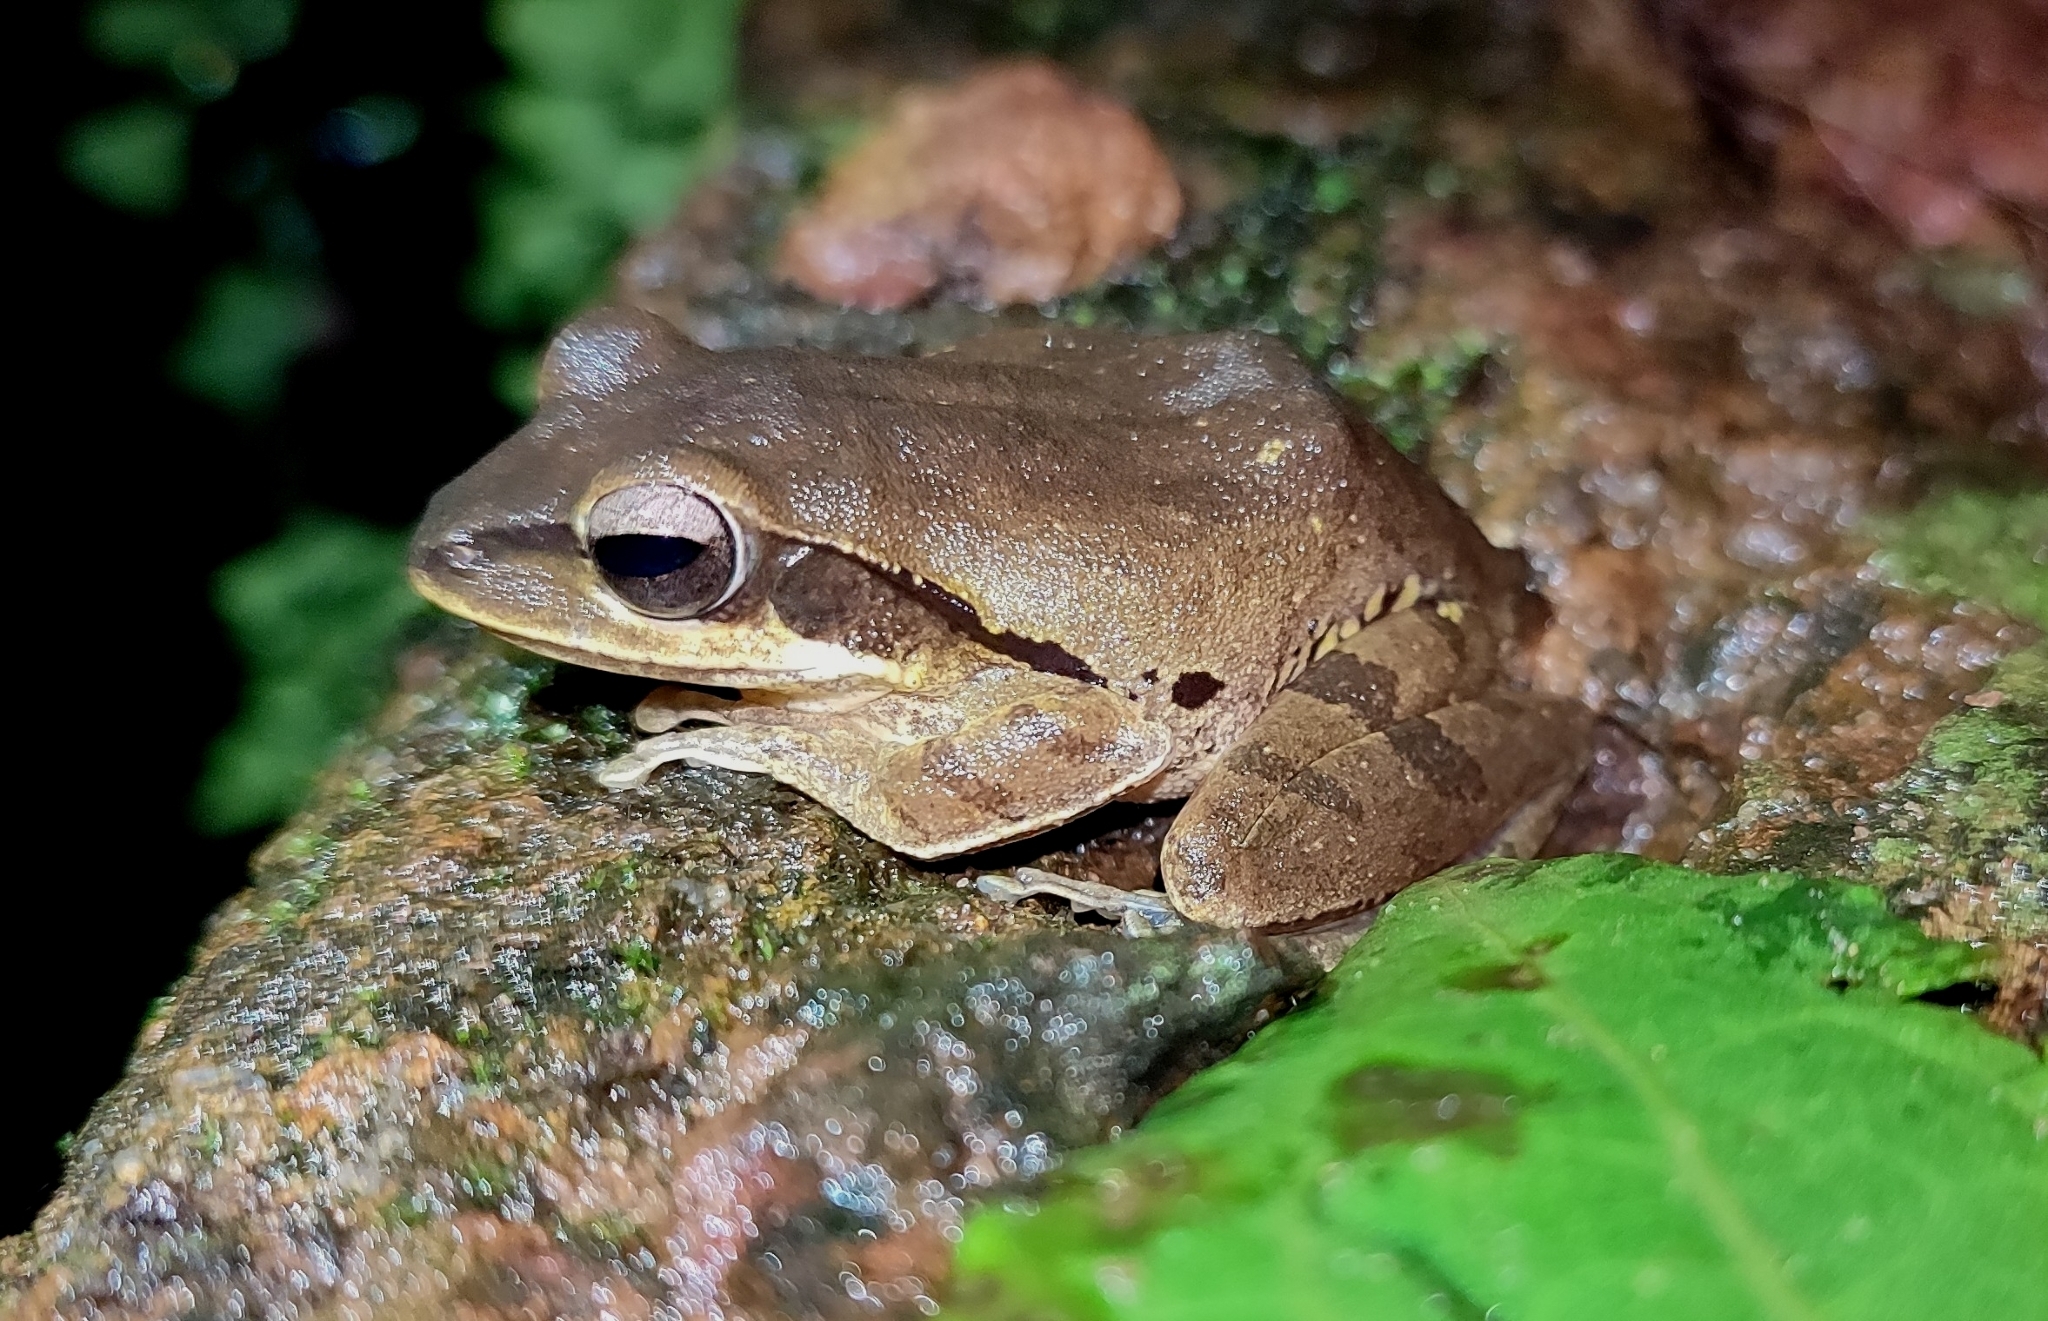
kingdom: Animalia
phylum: Chordata
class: Amphibia
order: Anura
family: Rhacophoridae
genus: Polypedates
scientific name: Polypedates maculatus
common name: Himalayan tree frog
